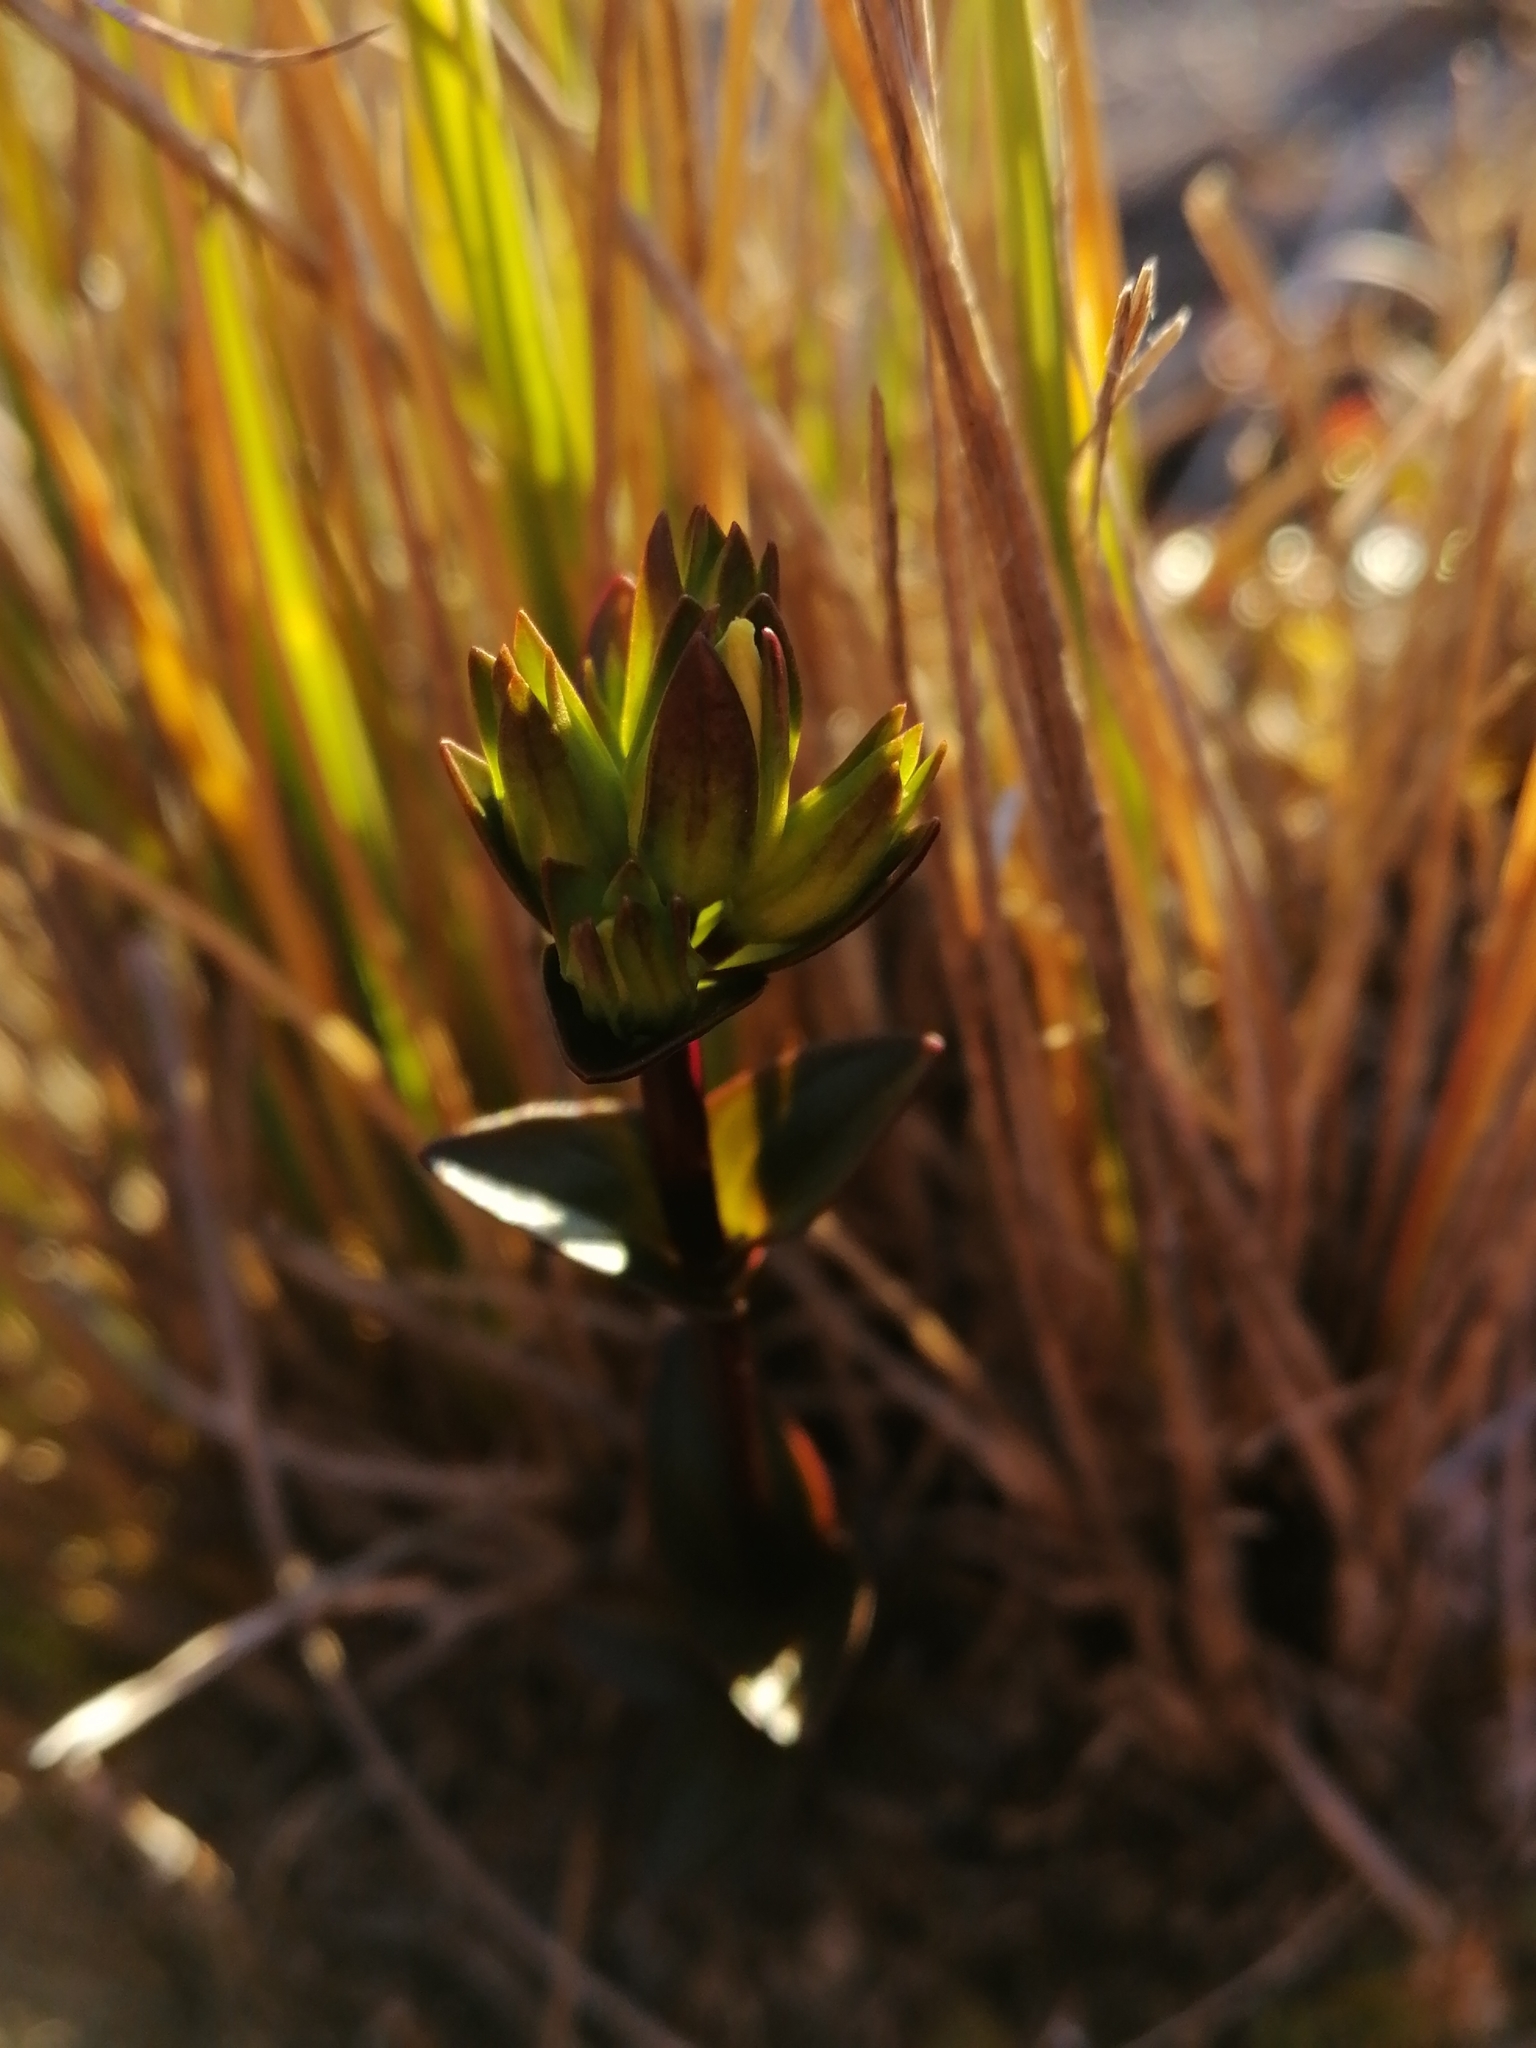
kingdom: Plantae
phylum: Tracheophyta
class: Magnoliopsida
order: Gentianales
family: Gentianaceae
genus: Gentianella
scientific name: Gentianella montana
